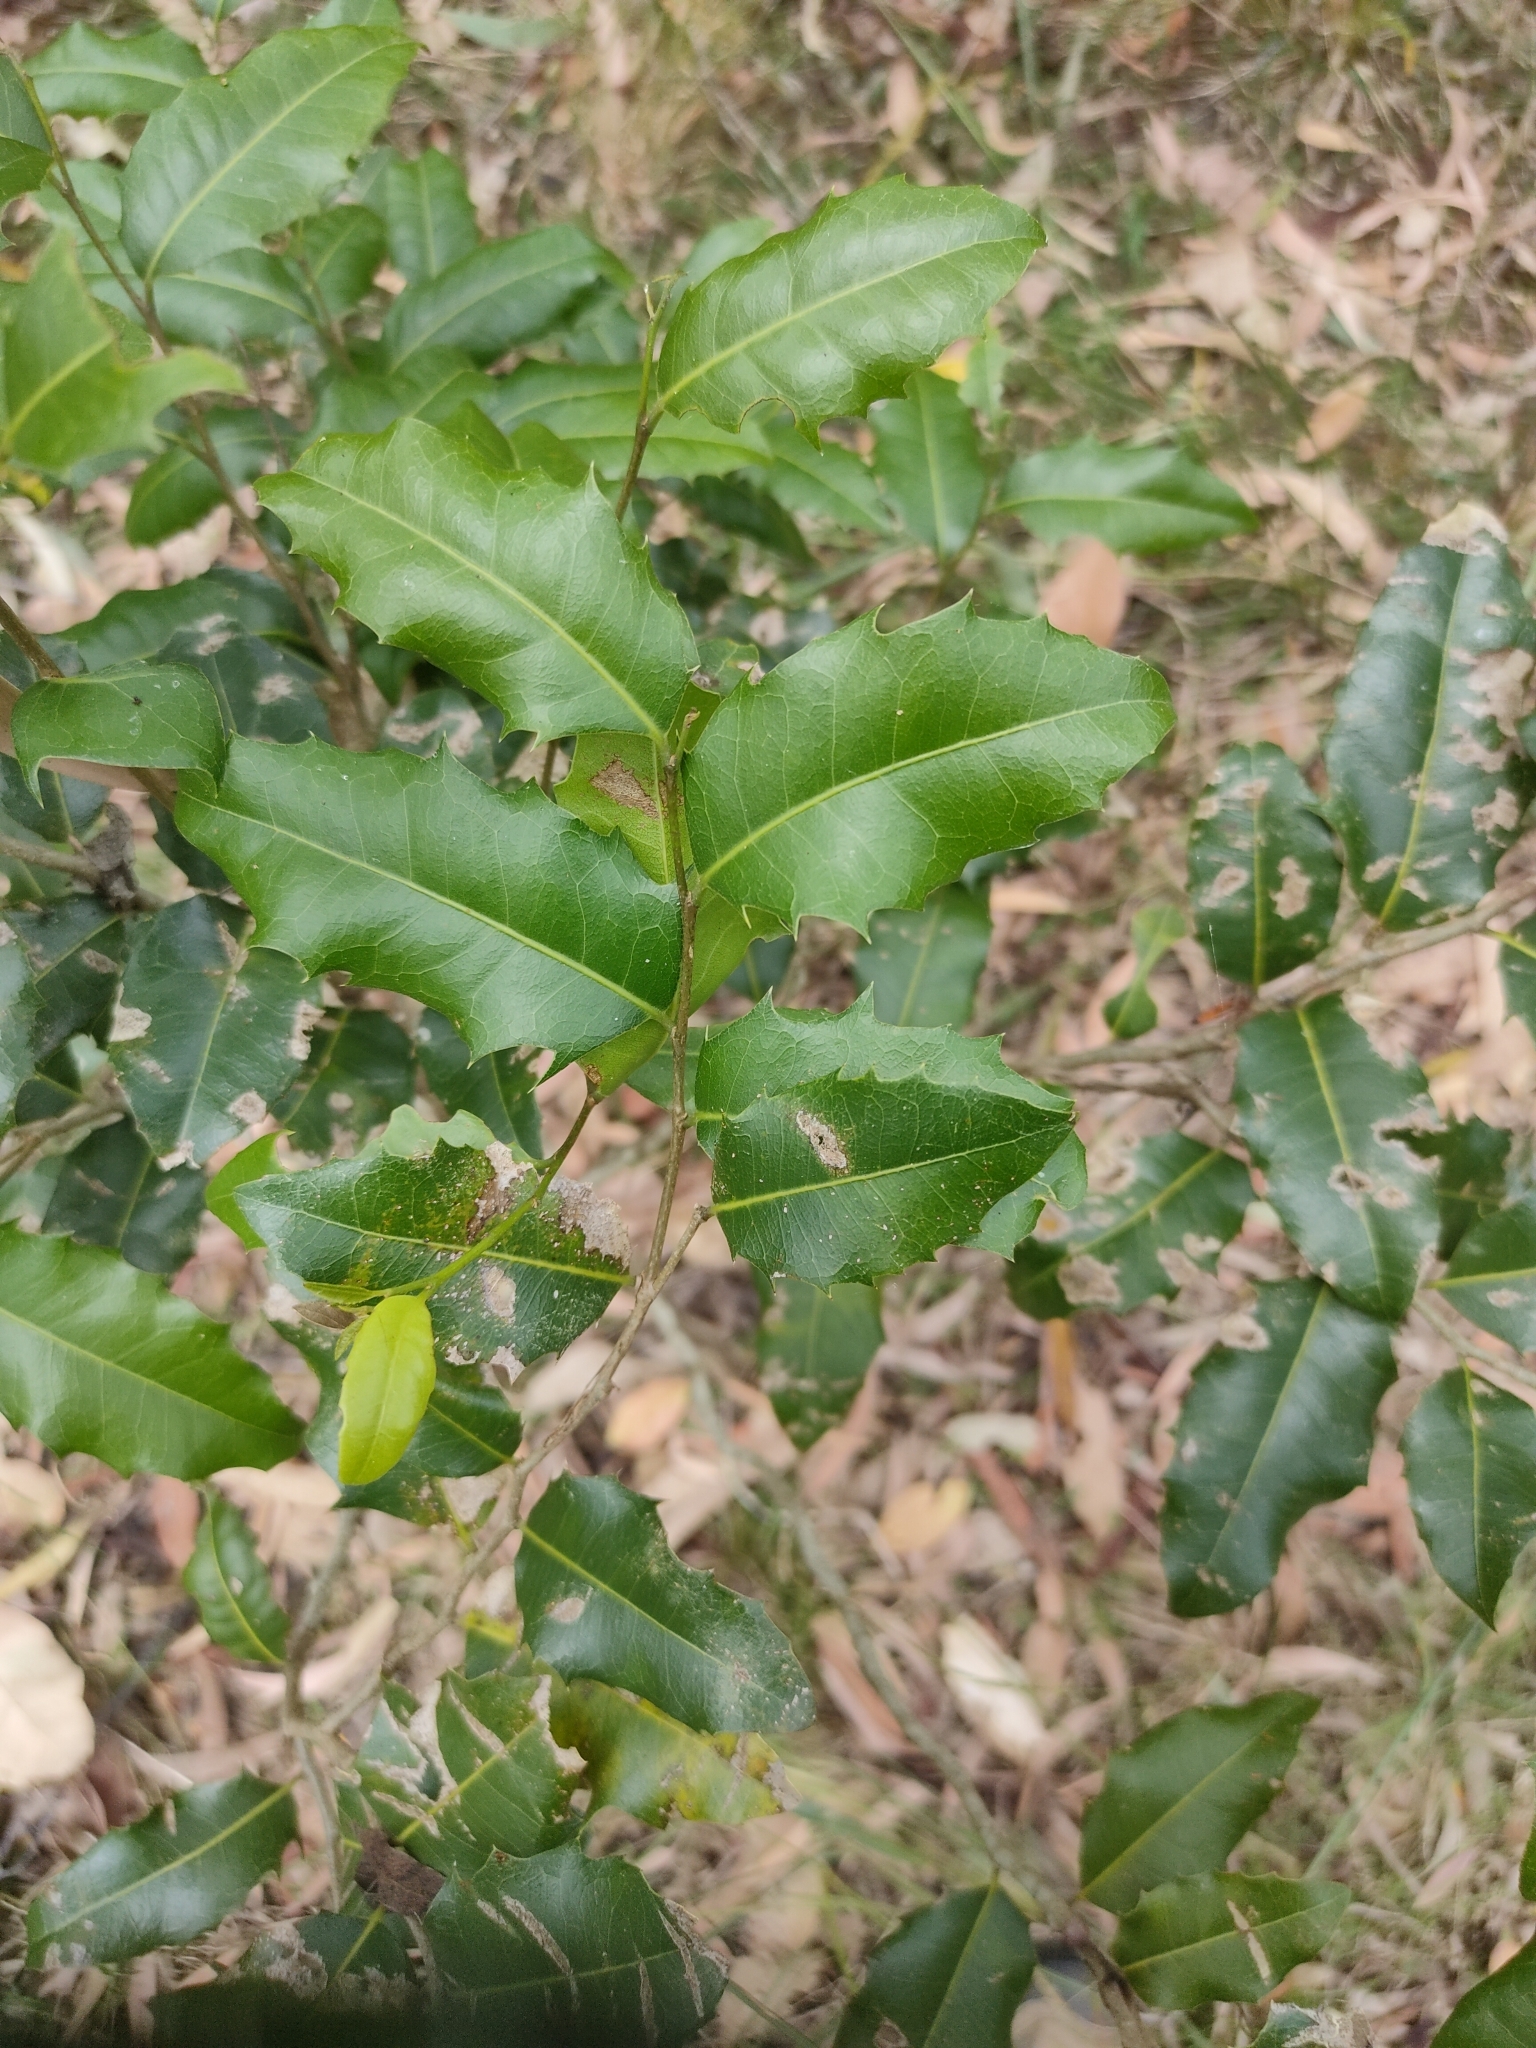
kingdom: Plantae
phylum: Tracheophyta
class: Magnoliopsida
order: Malpighiales
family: Putranjivaceae
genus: Drypetes
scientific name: Drypetes deplanchei
